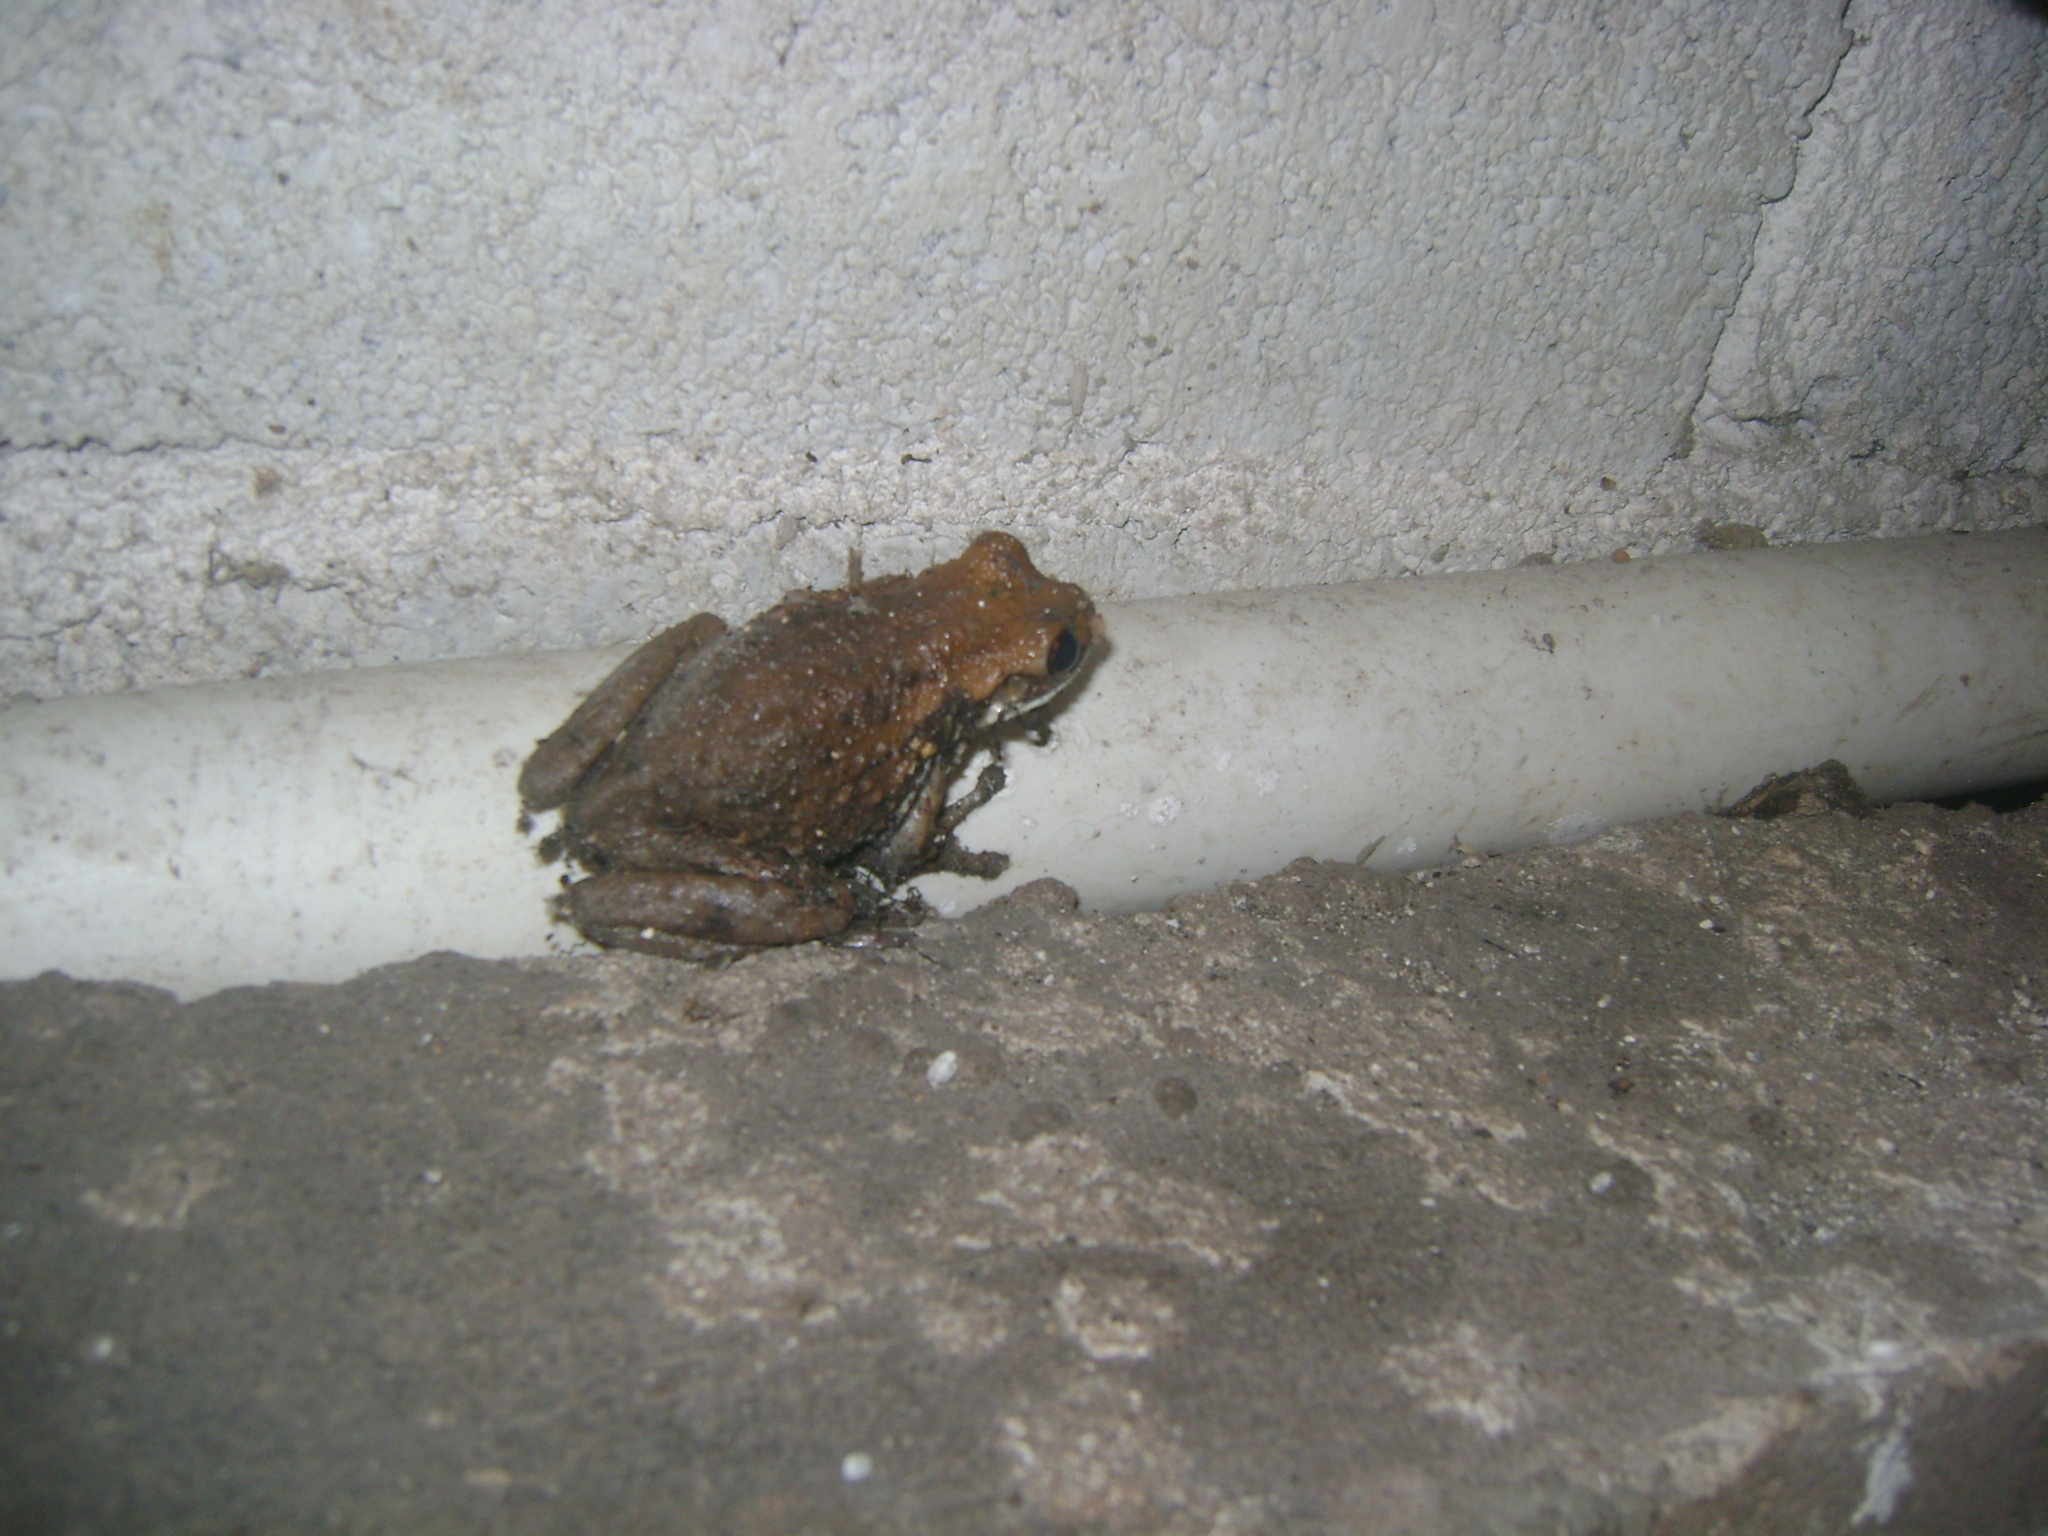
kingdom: Animalia
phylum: Chordata
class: Amphibia
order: Anura
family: Hylidae
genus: Trachycephalus
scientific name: Trachycephalus vermiculatus
